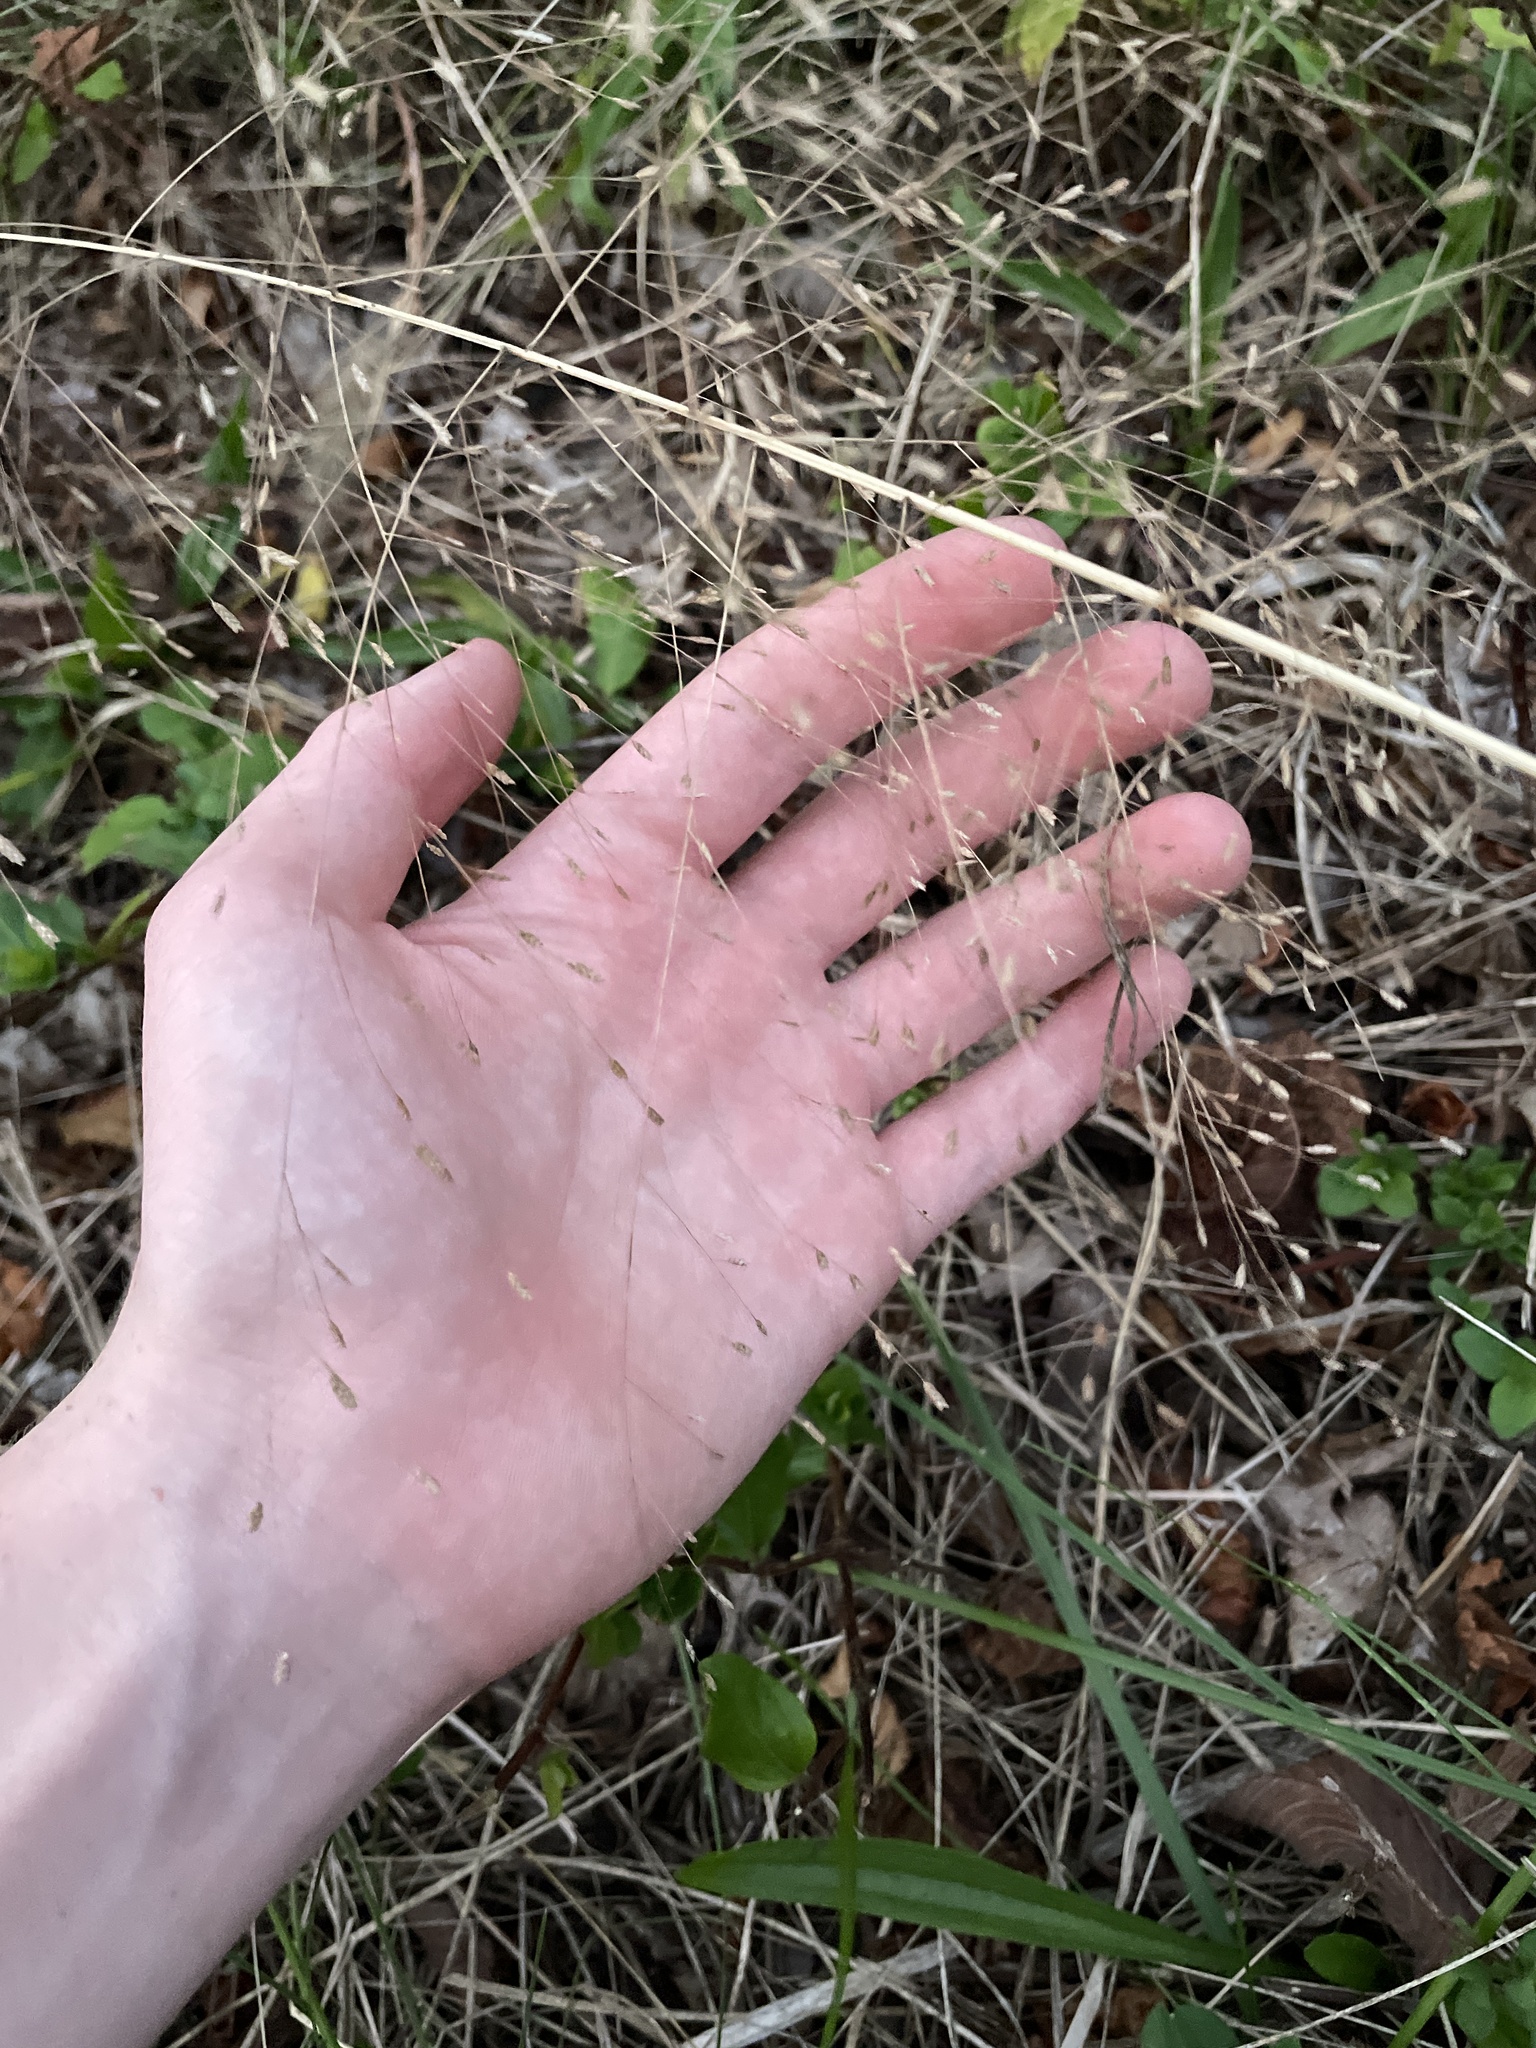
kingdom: Plantae
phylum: Tracheophyta
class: Liliopsida
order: Poales
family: Poaceae
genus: Eragrostis
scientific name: Eragrostis spectabilis
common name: Petticoat-climber
